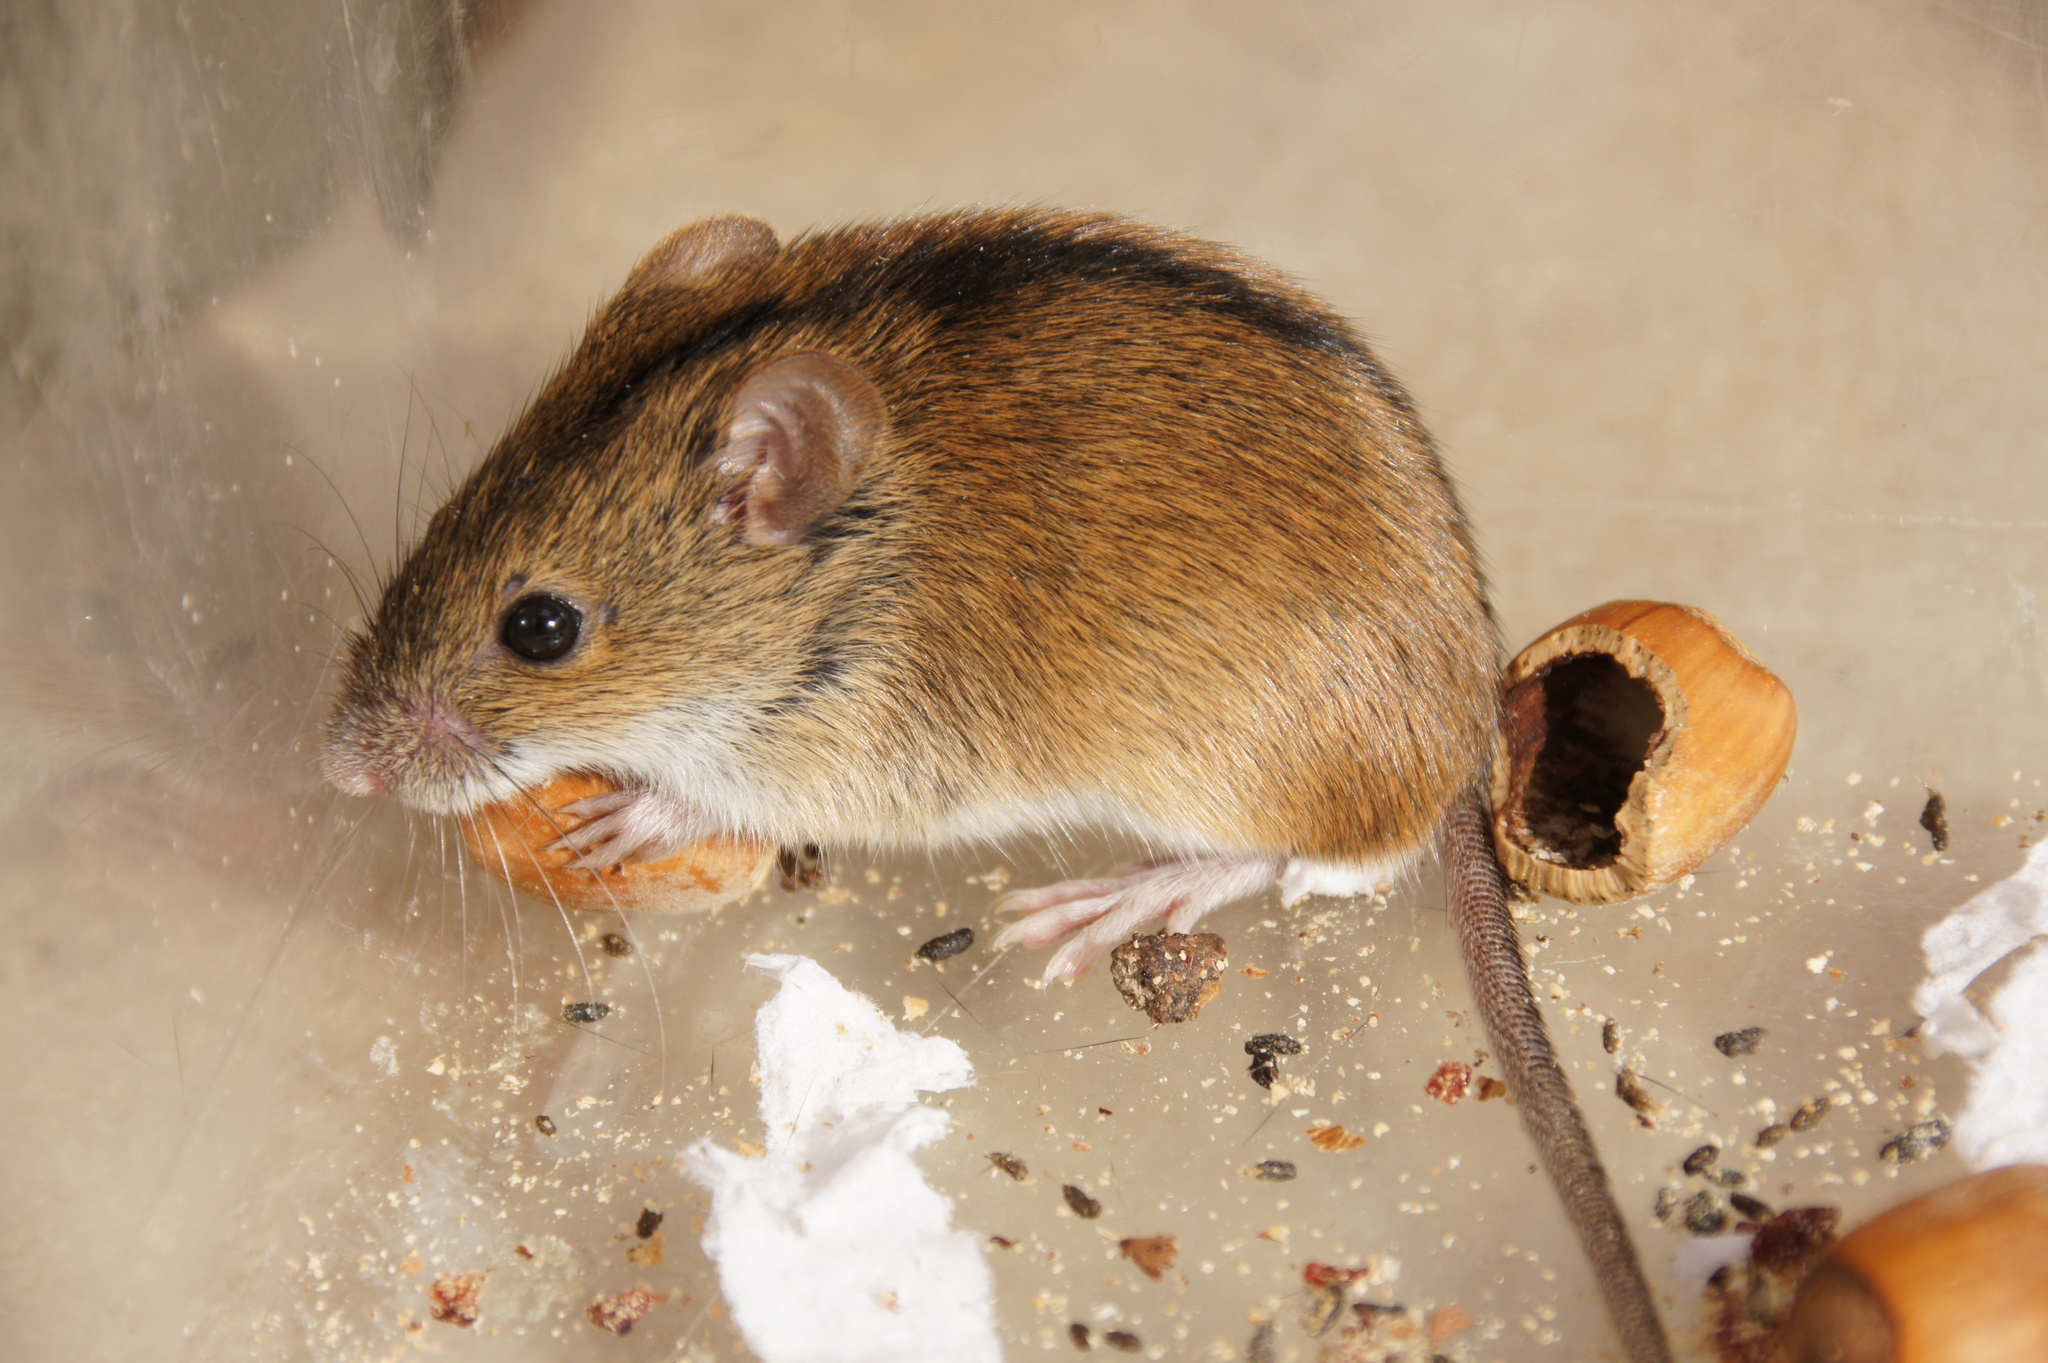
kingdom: Animalia
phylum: Chordata
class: Mammalia
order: Rodentia
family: Muridae
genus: Apodemus
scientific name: Apodemus agrarius
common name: Striped field mouse
